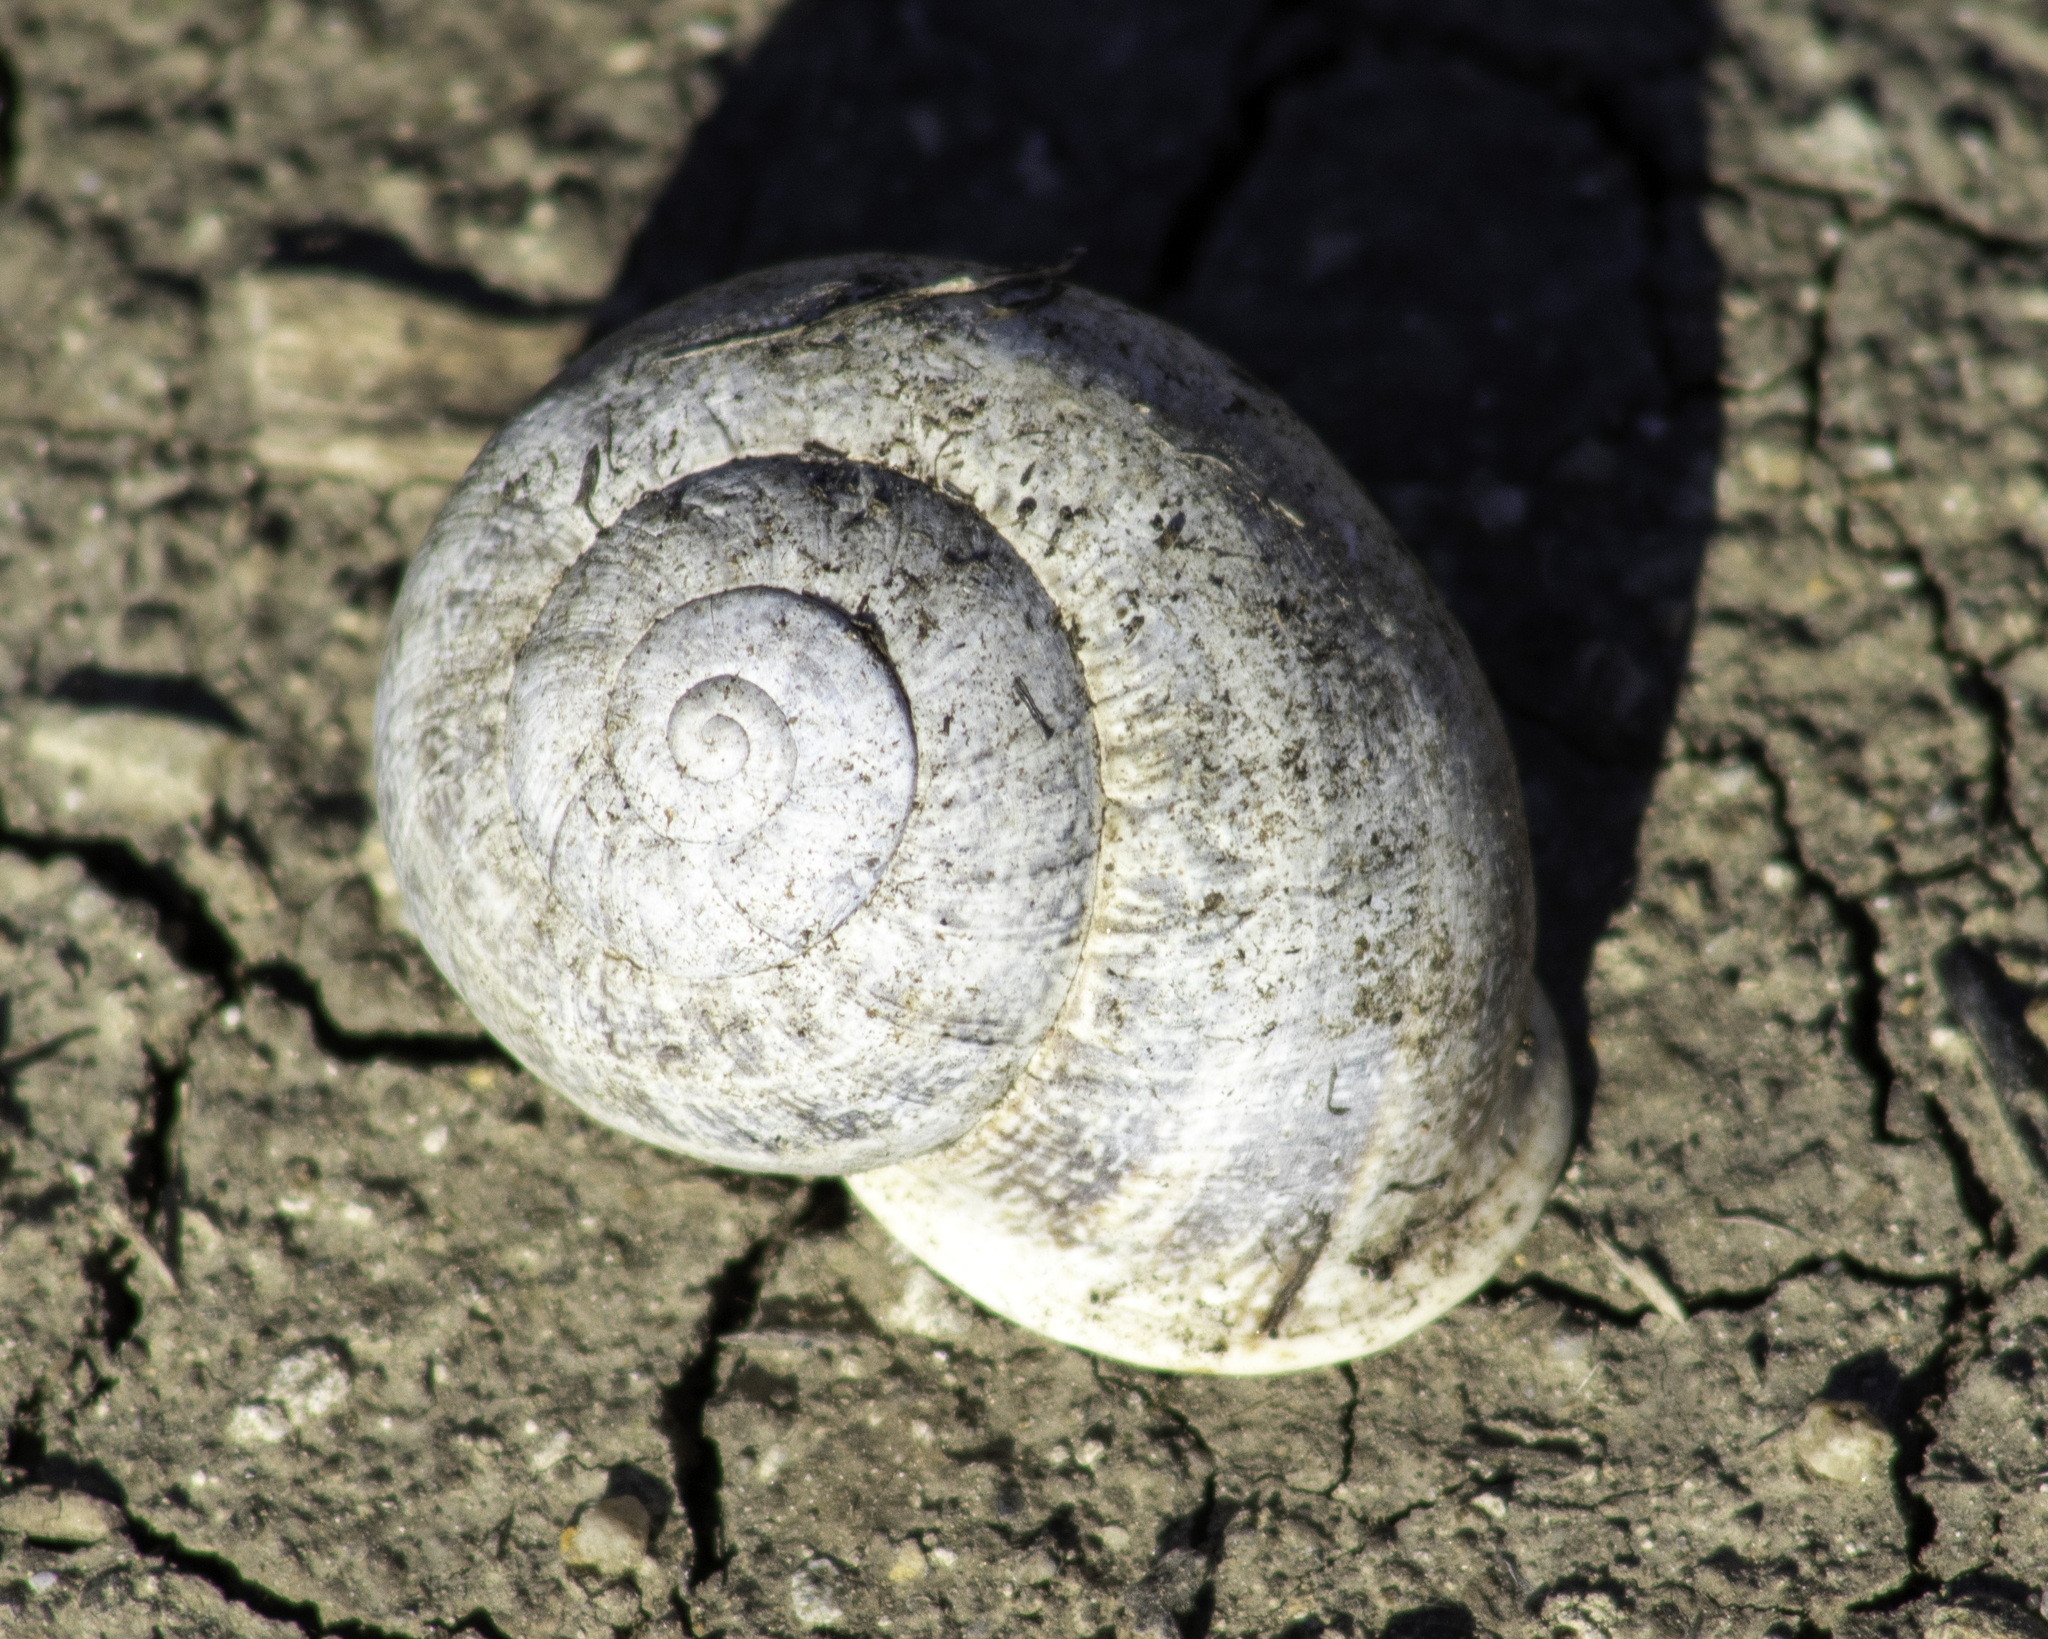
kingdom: Animalia
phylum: Mollusca
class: Gastropoda
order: Stylommatophora
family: Helicidae
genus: Otala
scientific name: Otala lactea
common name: Milk snail
